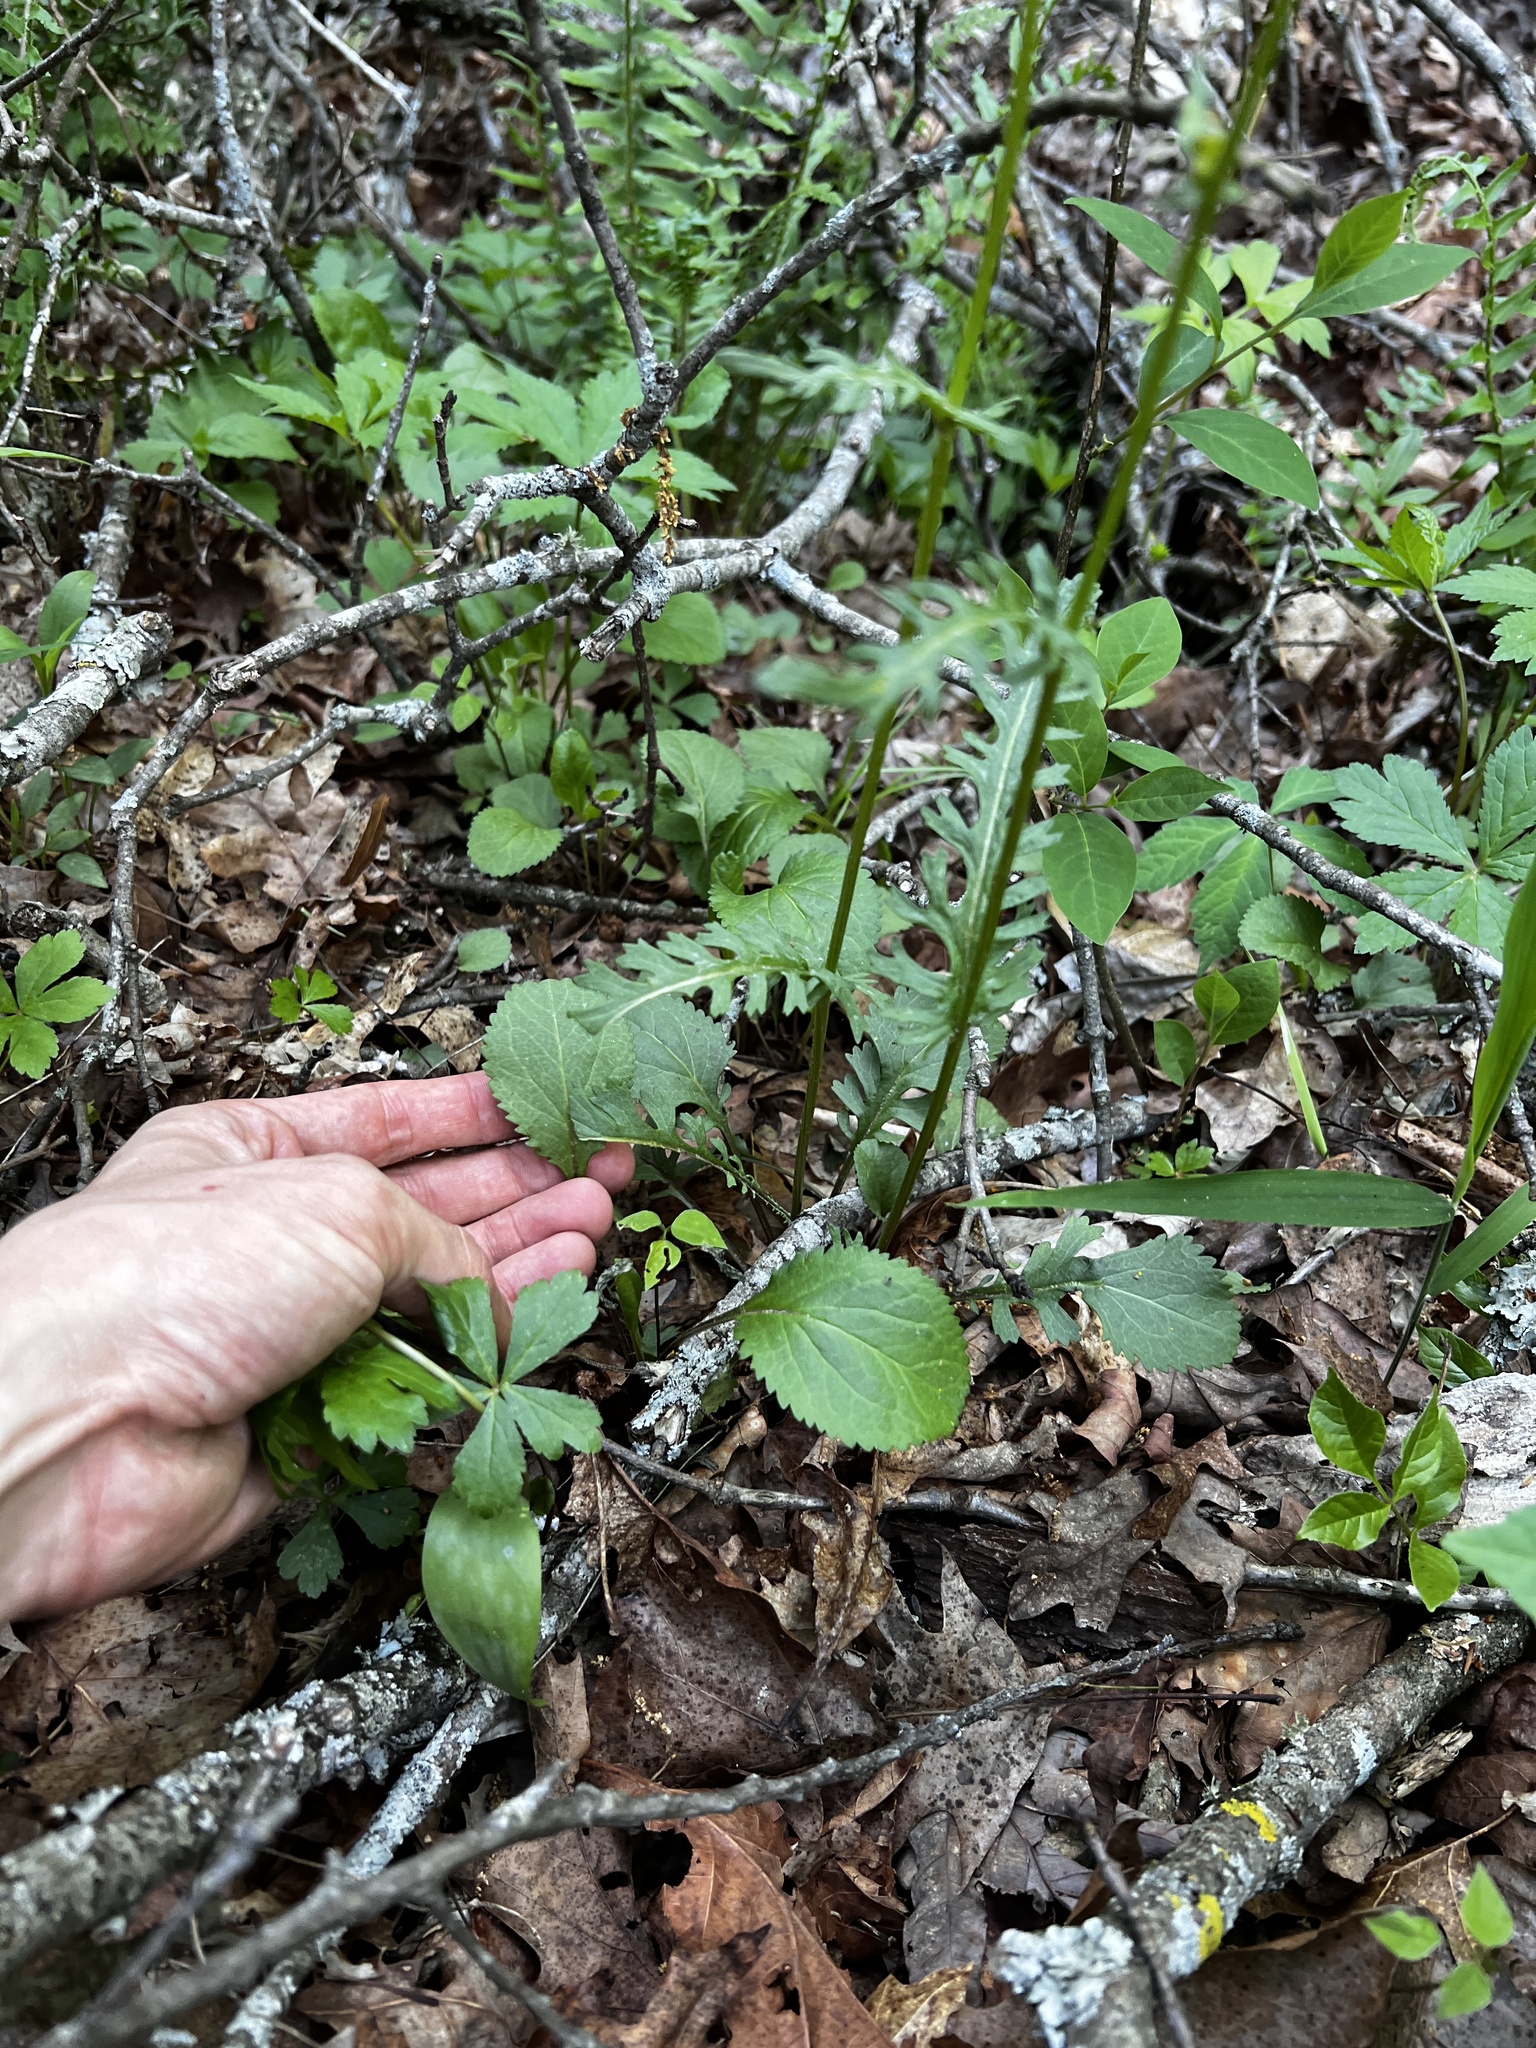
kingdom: Plantae
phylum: Tracheophyta
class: Magnoliopsida
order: Asterales
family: Asteraceae
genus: Packera
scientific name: Packera obovata
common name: Round-leaf ragwort
